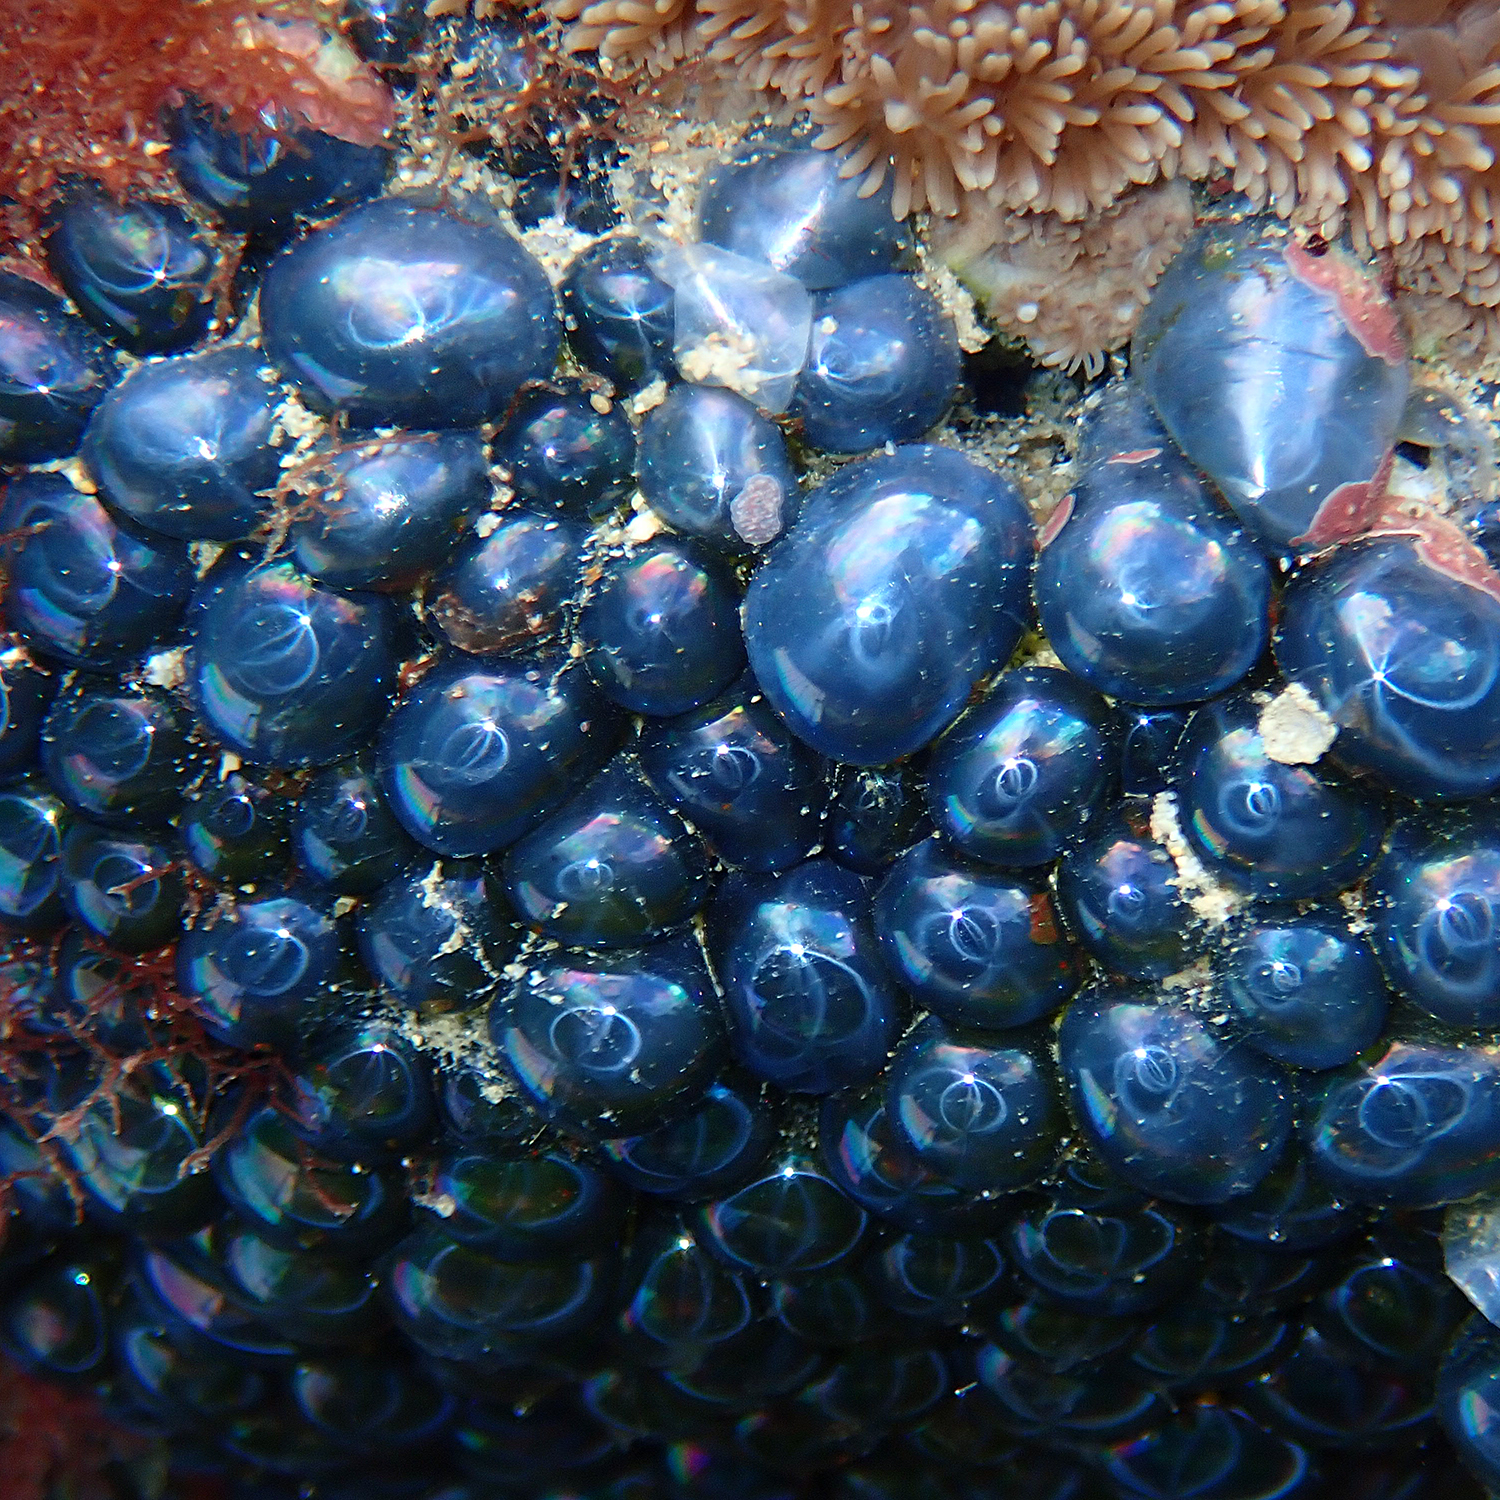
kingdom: Plantae
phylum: Chlorophyta
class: Ulvophyceae
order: Siphonocladales
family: Valoniaceae
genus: Valonia
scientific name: Valonia ventricosa
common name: Sea pearl
